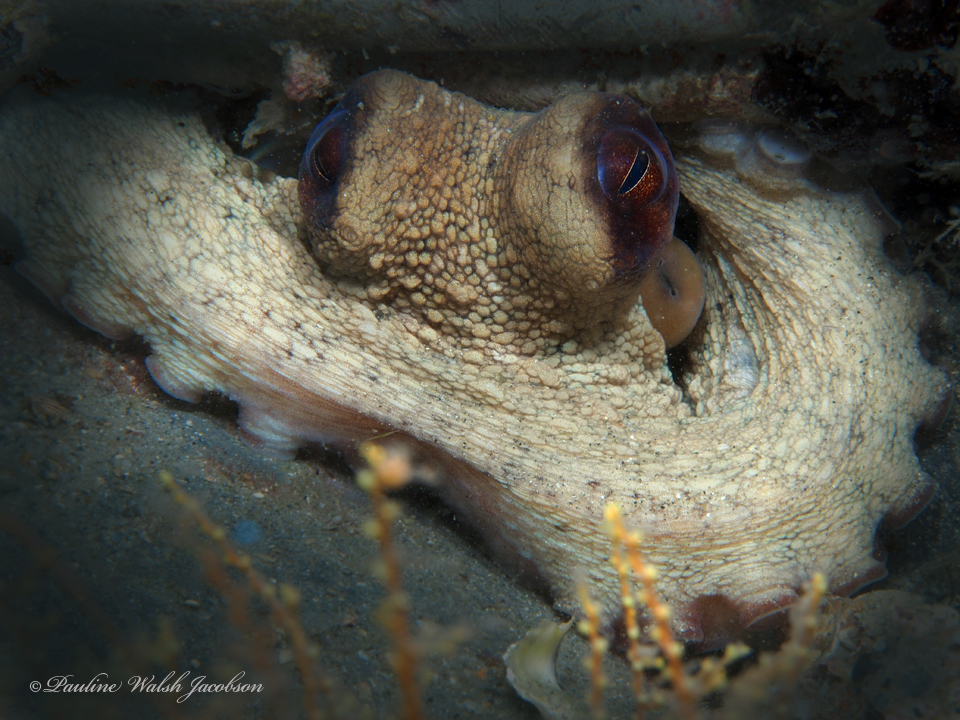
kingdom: Animalia
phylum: Mollusca
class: Cephalopoda
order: Octopoda
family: Octopodidae
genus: Octopus
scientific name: Octopus americanus
